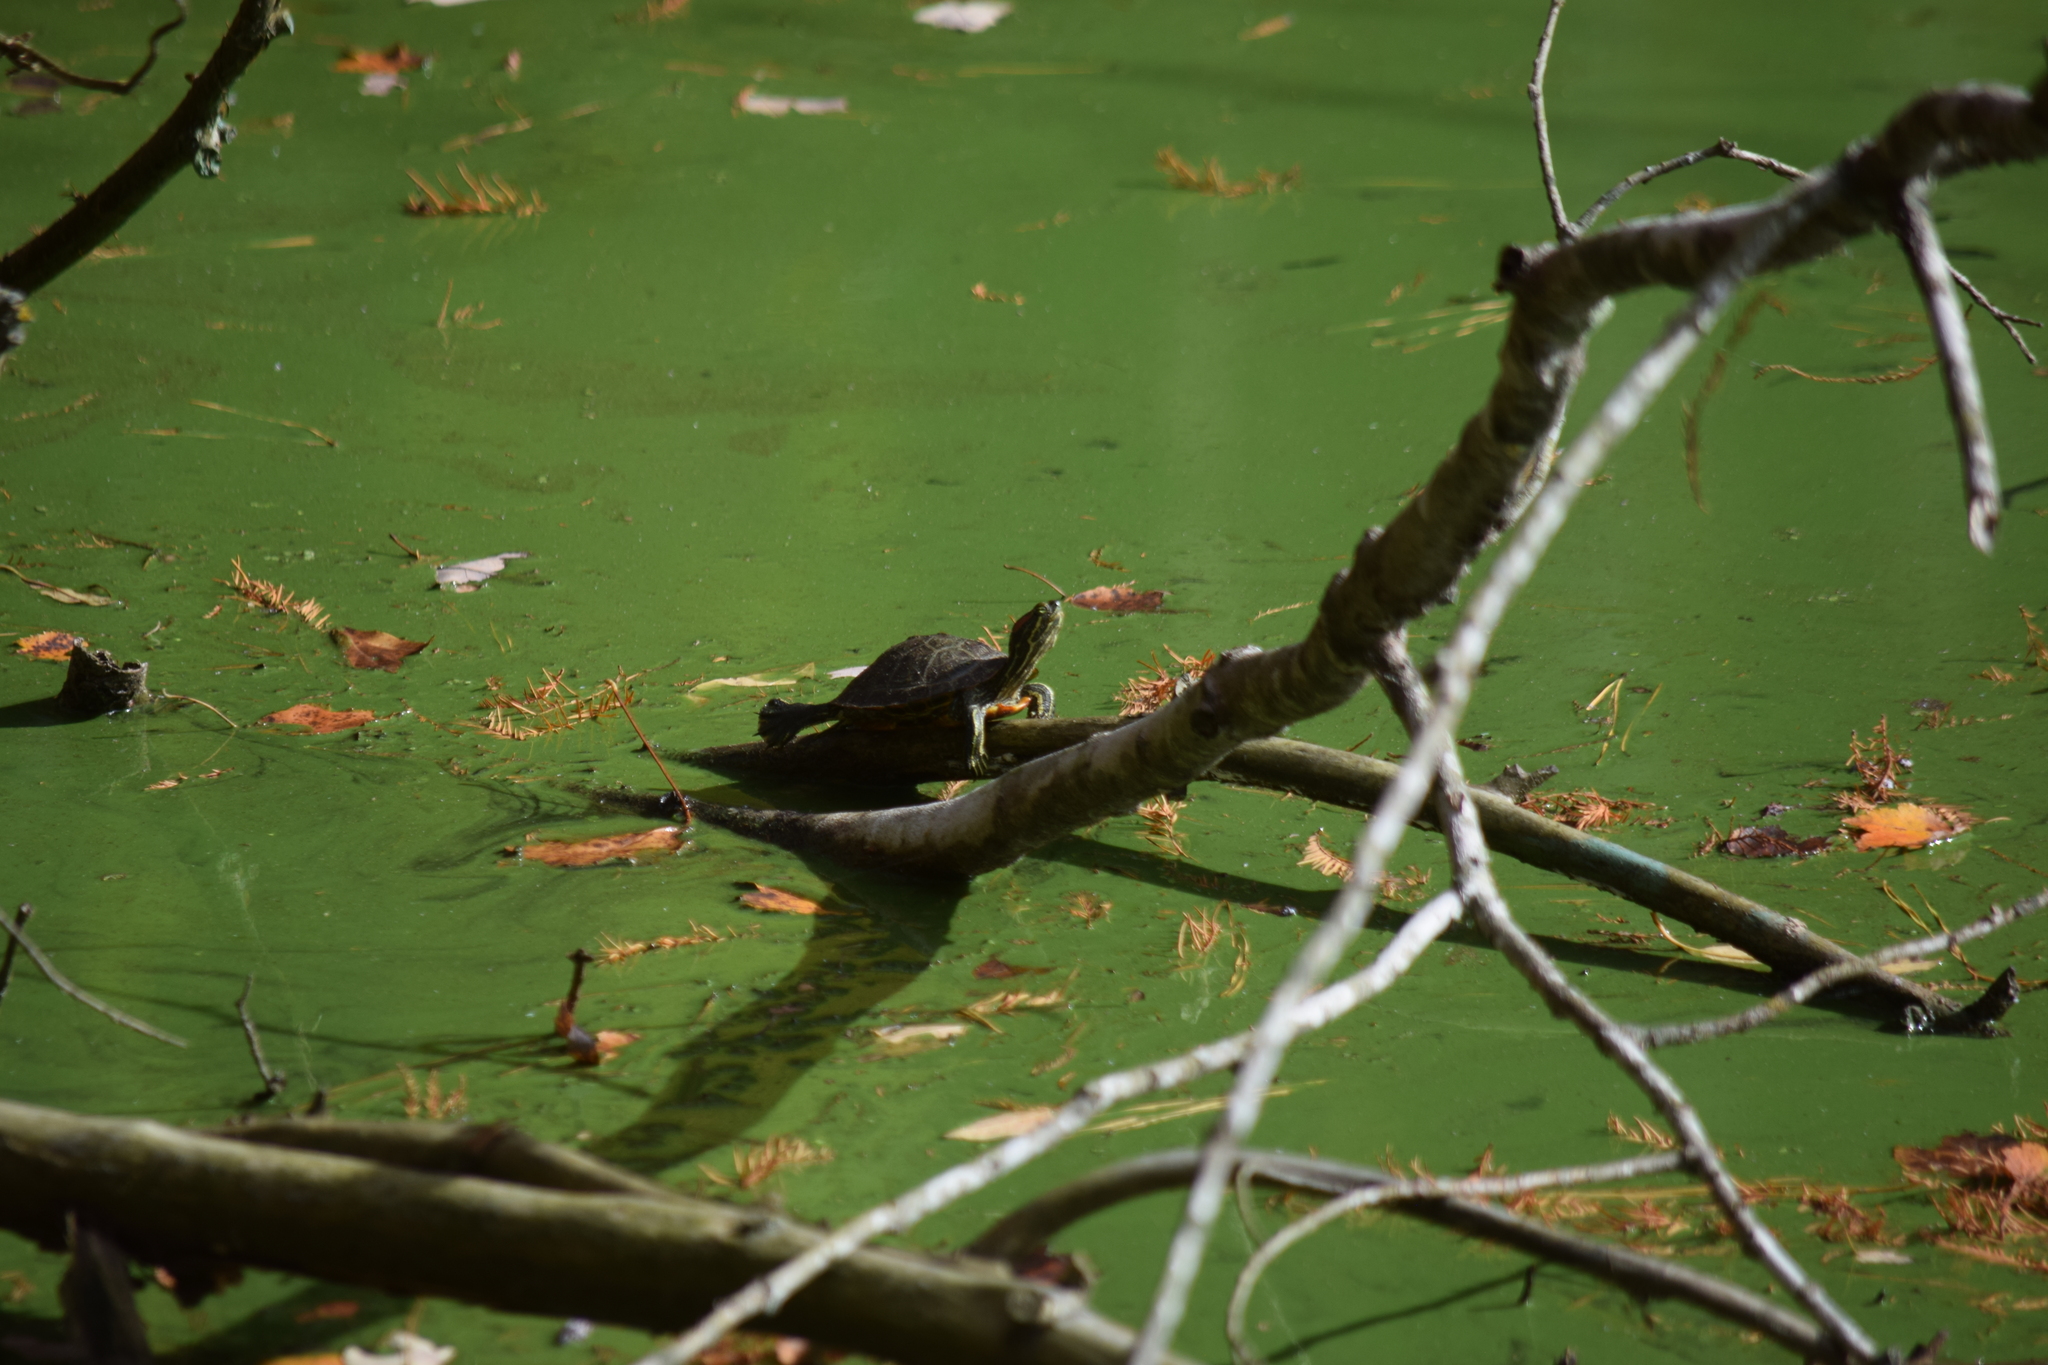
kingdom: Animalia
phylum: Chordata
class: Testudines
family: Emydidae
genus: Trachemys
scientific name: Trachemys scripta
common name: Slider
